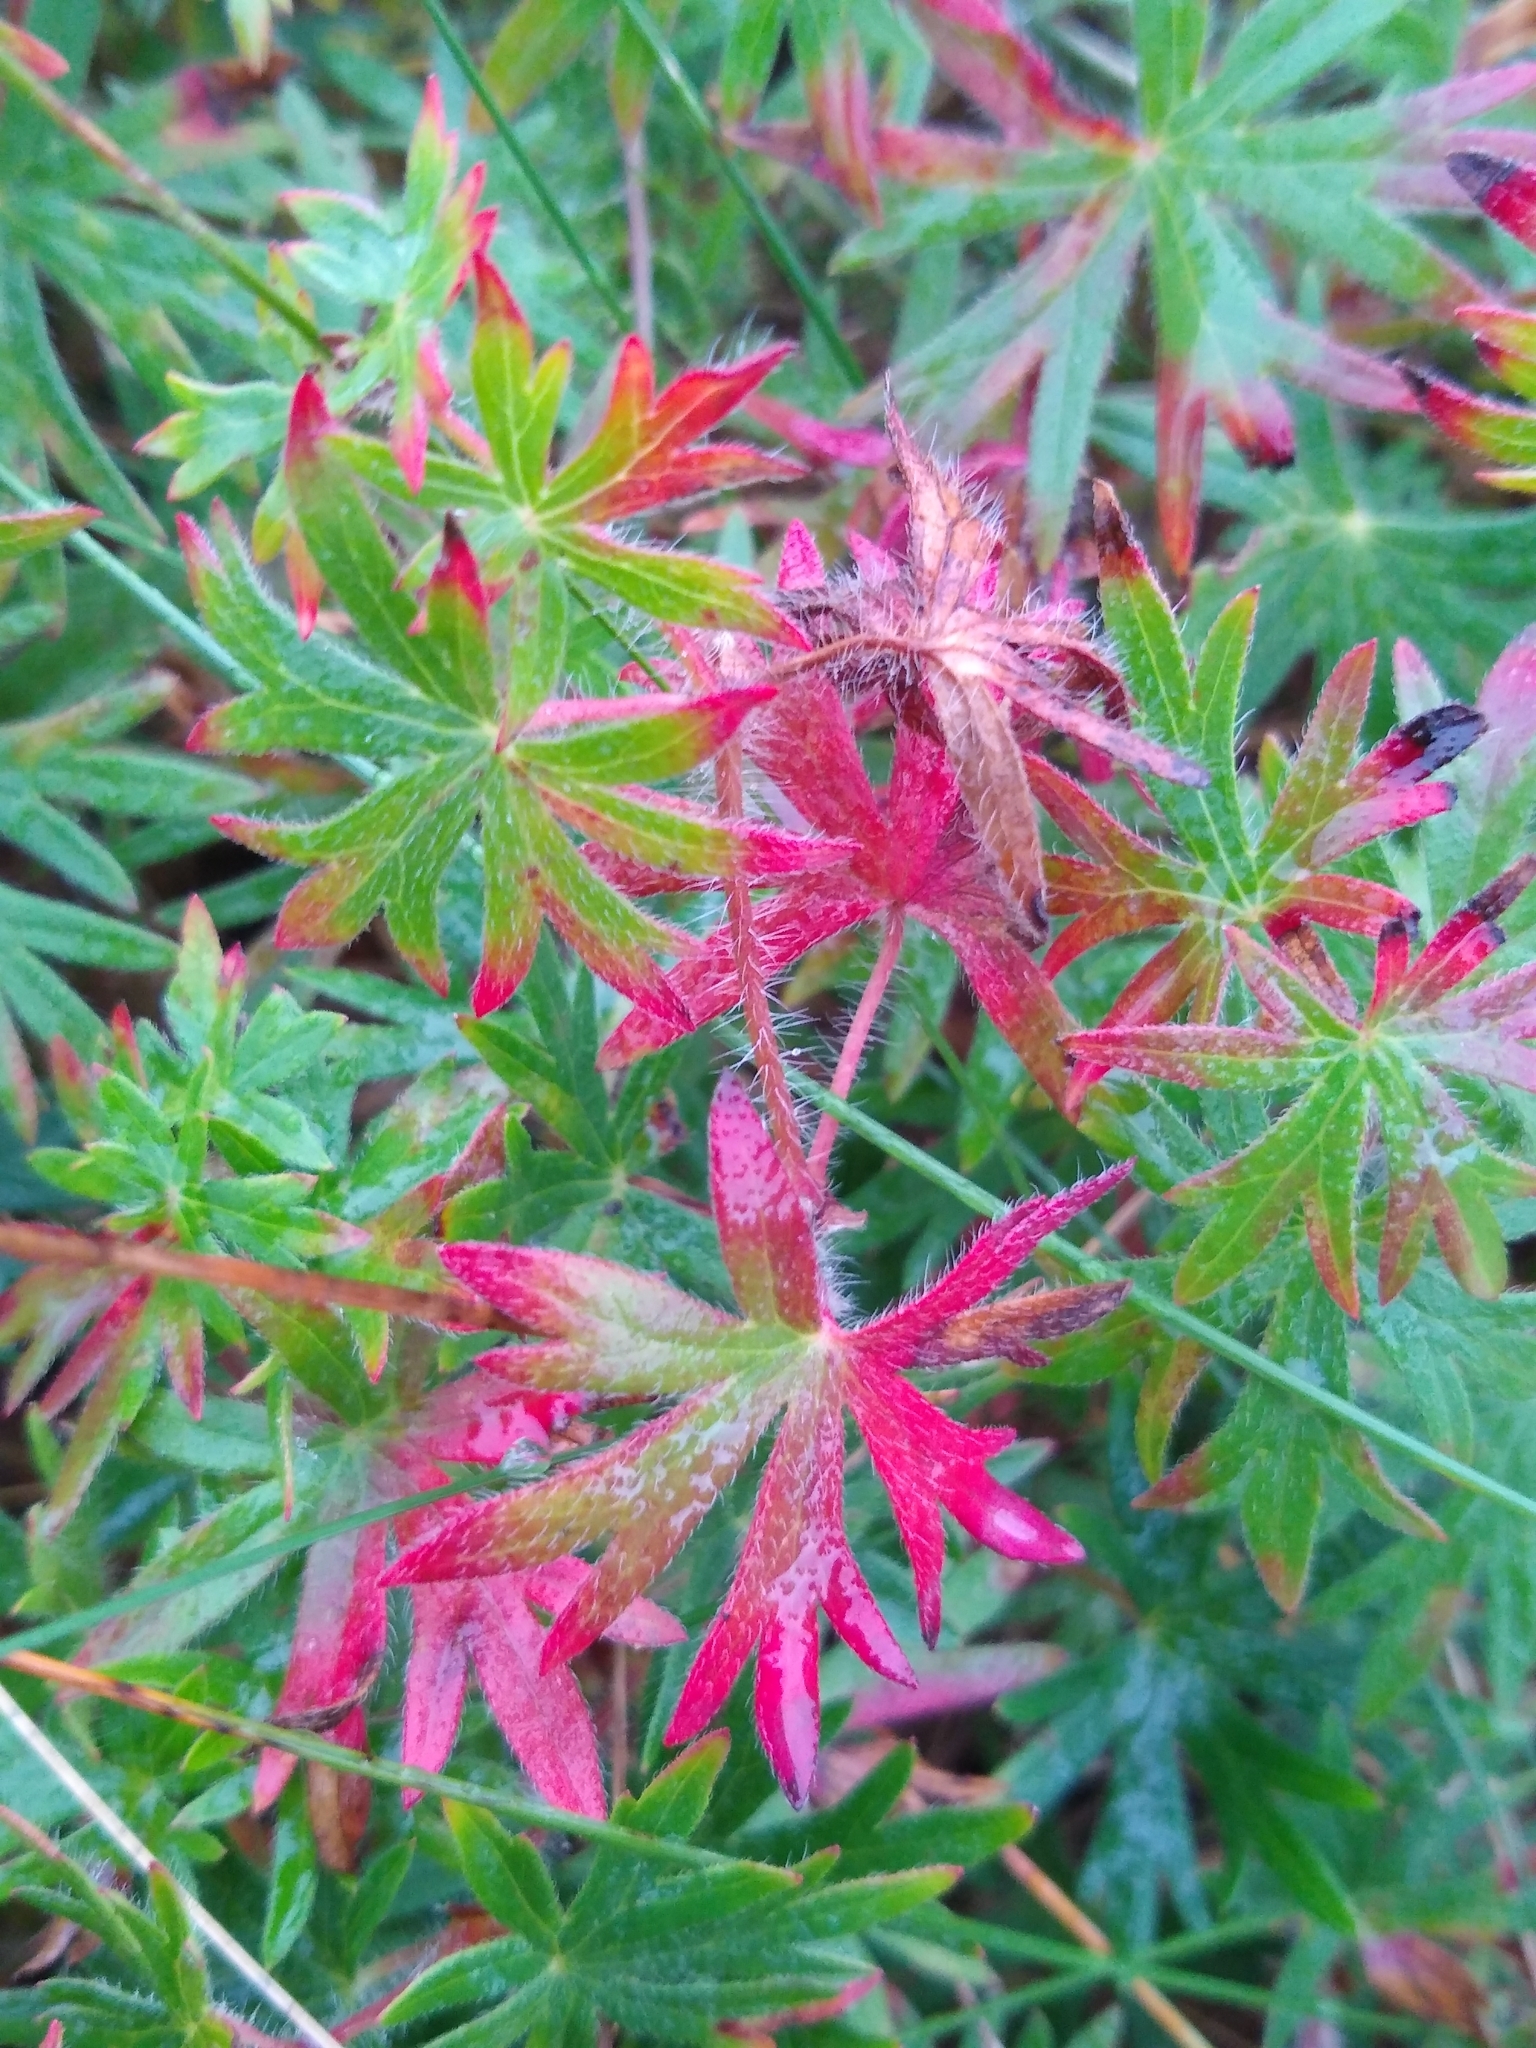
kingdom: Plantae
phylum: Tracheophyta
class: Magnoliopsida
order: Geraniales
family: Geraniaceae
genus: Geranium
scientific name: Geranium sanguineum
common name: Bloody crane's-bill
